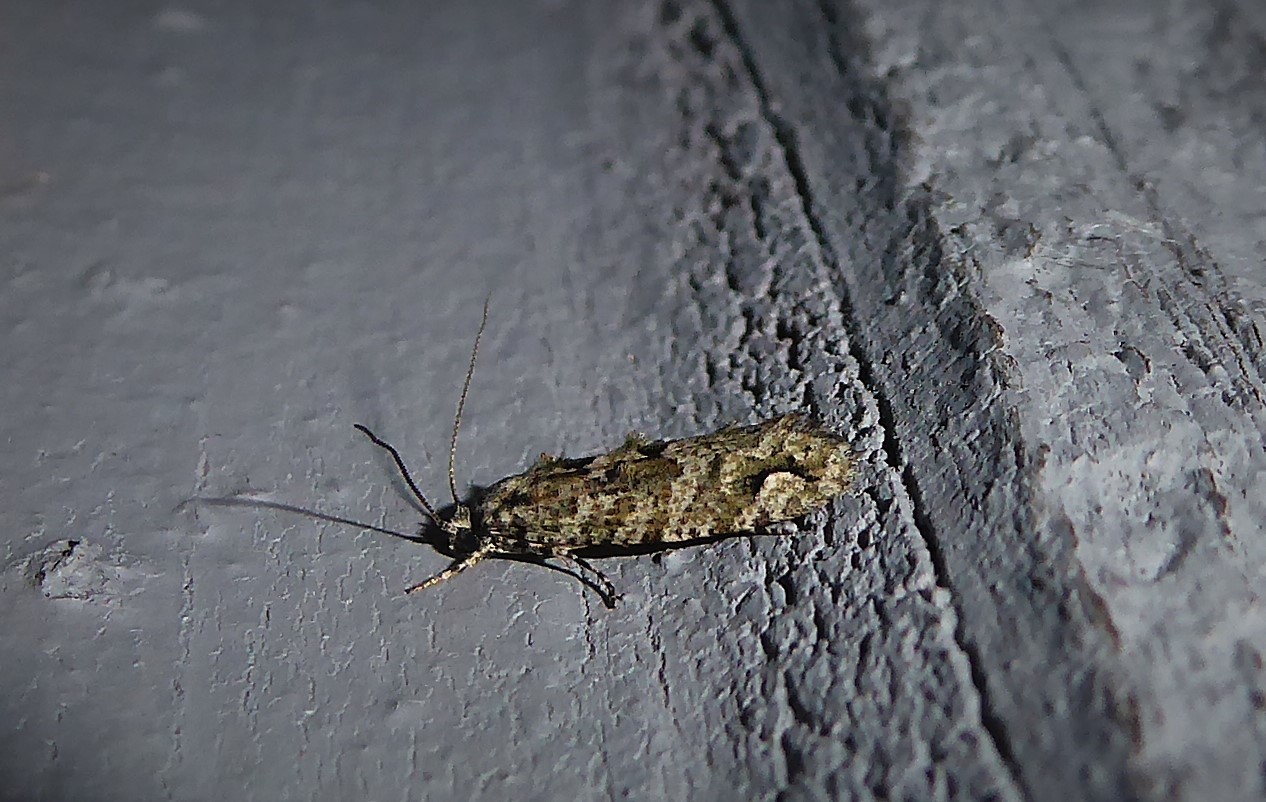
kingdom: Animalia
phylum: Arthropoda
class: Insecta
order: Lepidoptera
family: Tineidae
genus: Lysiphragma
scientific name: Lysiphragma howesii
